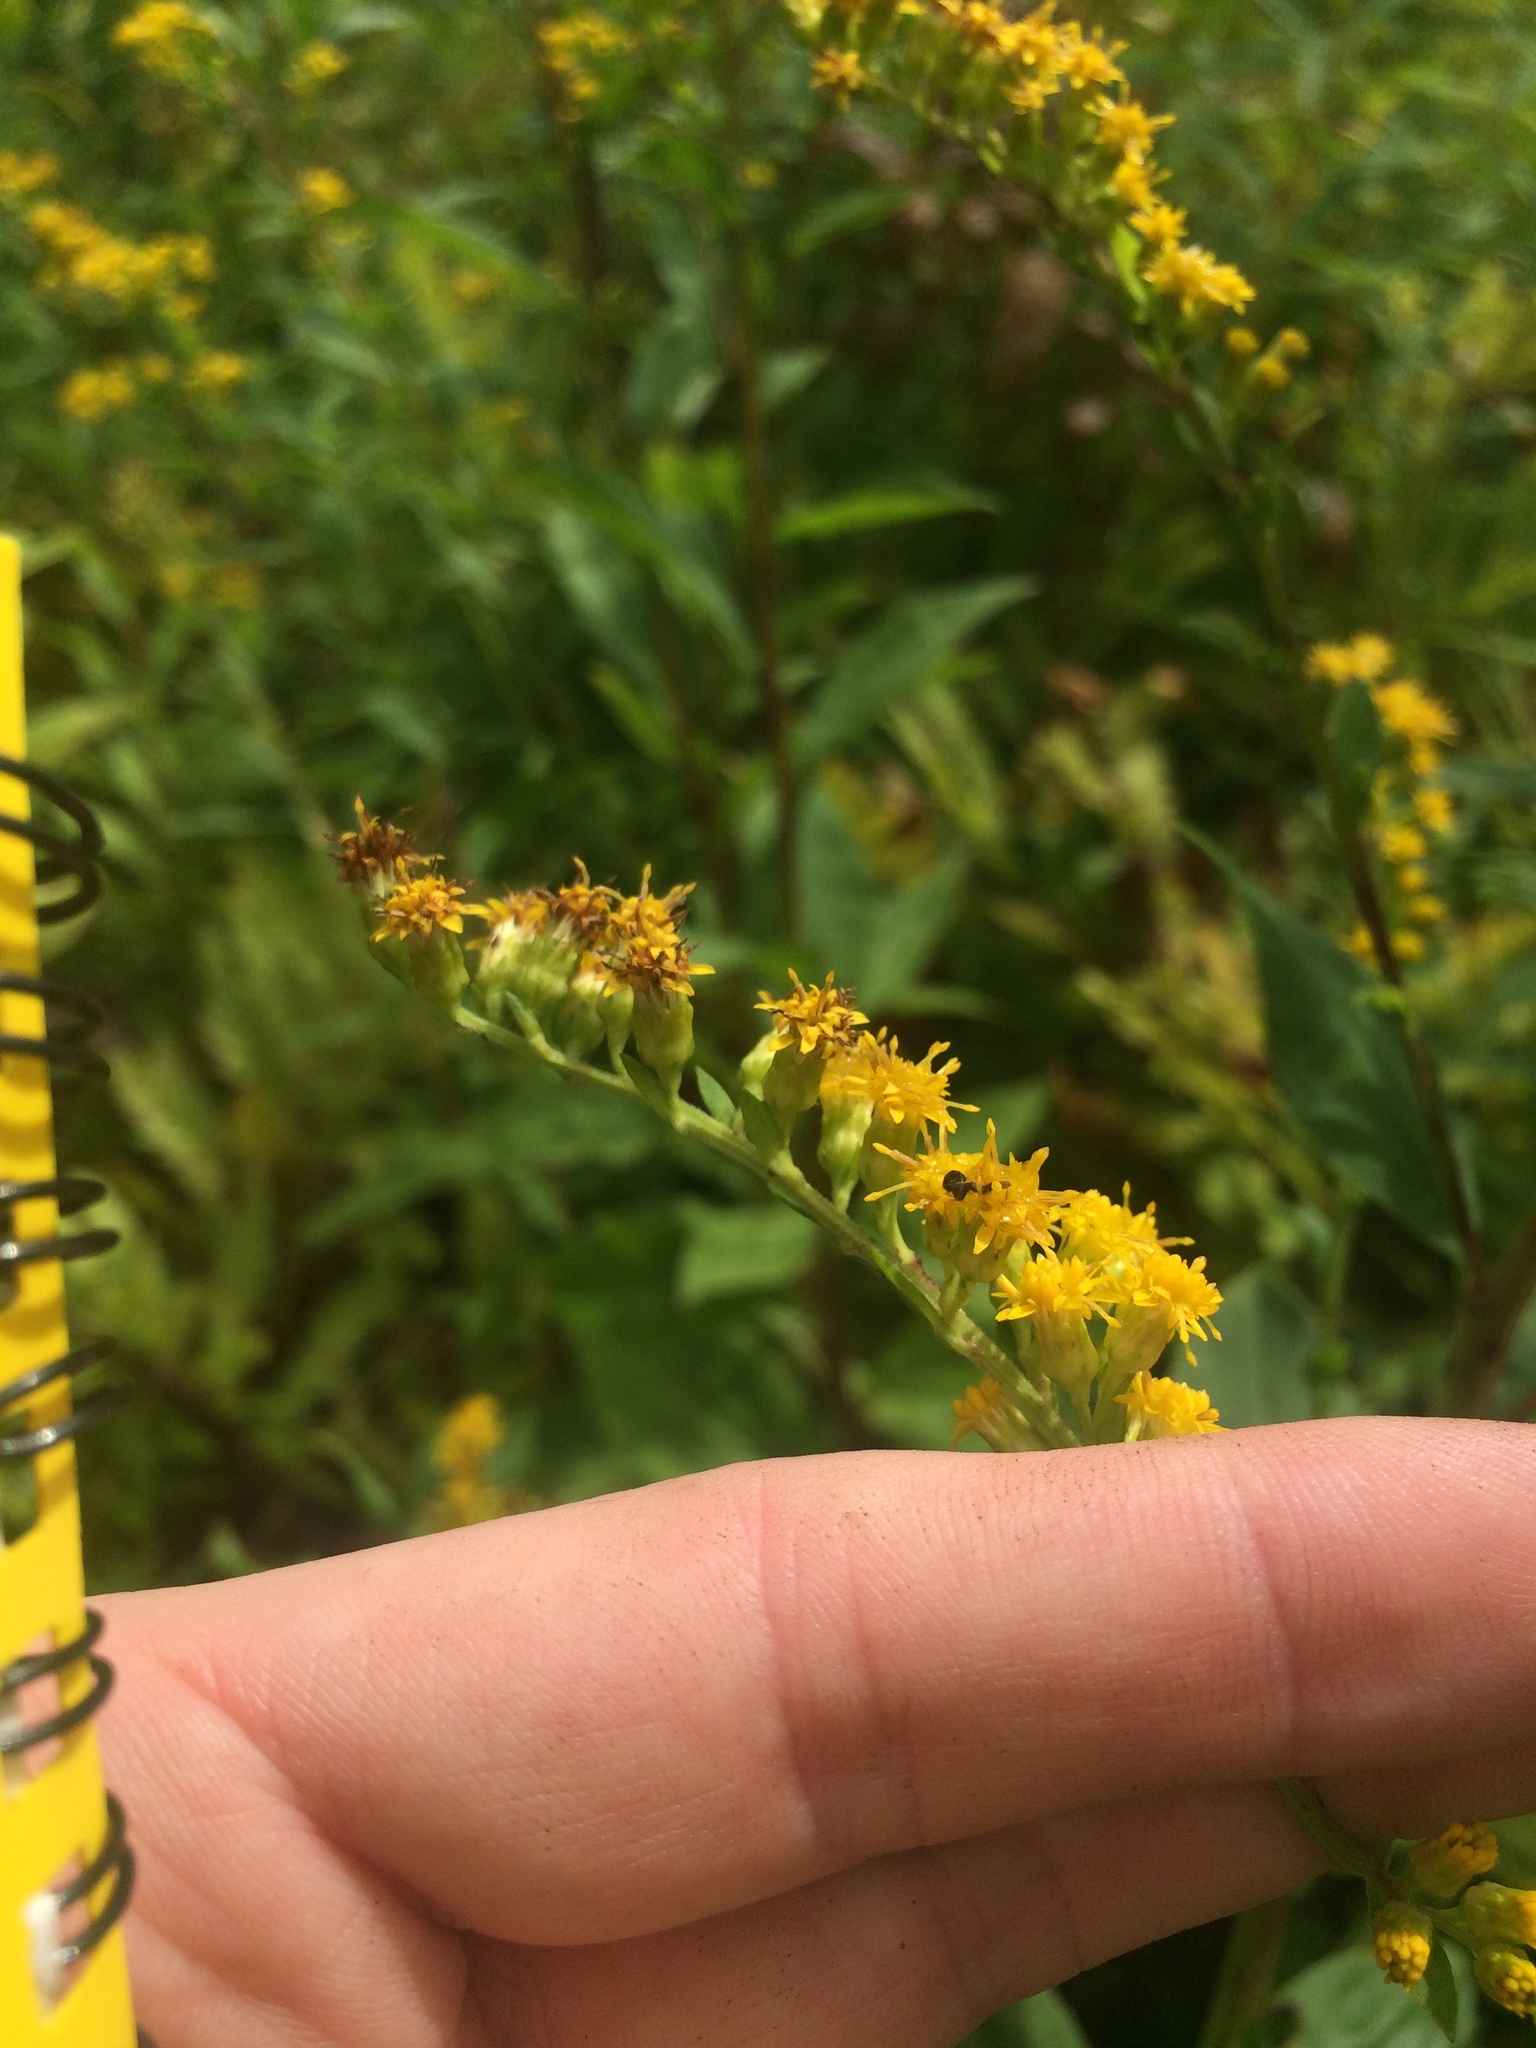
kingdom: Plantae
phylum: Tracheophyta
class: Magnoliopsida
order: Asterales
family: Asteraceae
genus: Solidago
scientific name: Solidago patula
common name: Rough-leaf goldenrod
